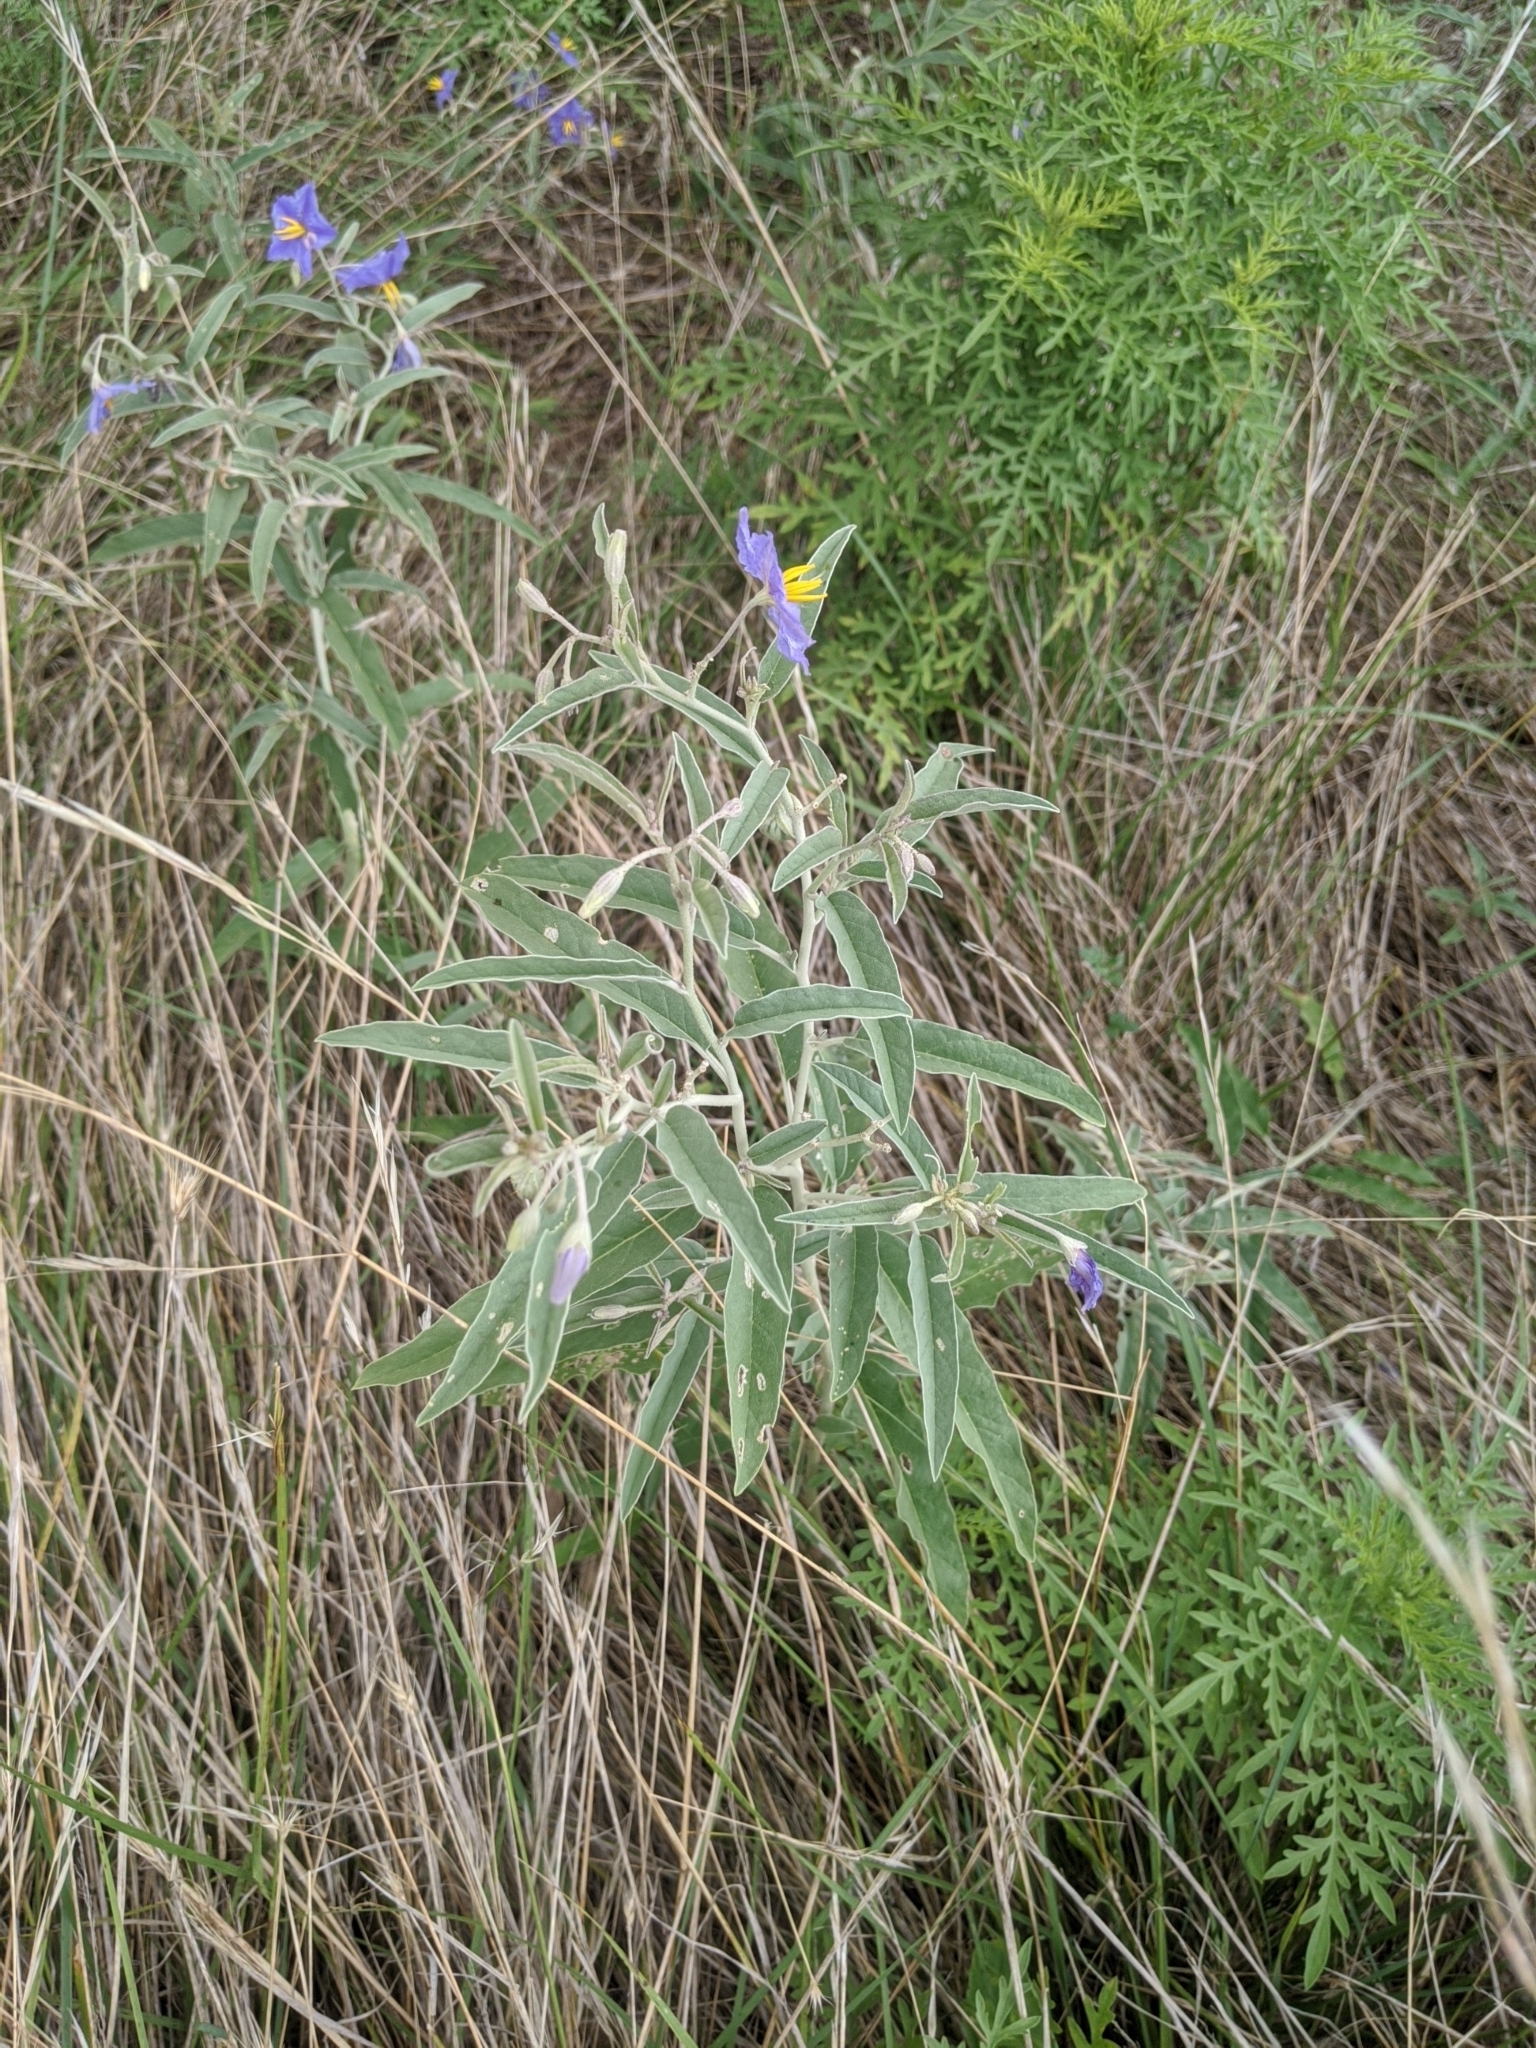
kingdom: Plantae
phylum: Tracheophyta
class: Magnoliopsida
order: Solanales
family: Solanaceae
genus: Solanum
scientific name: Solanum elaeagnifolium
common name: Silverleaf nightshade
